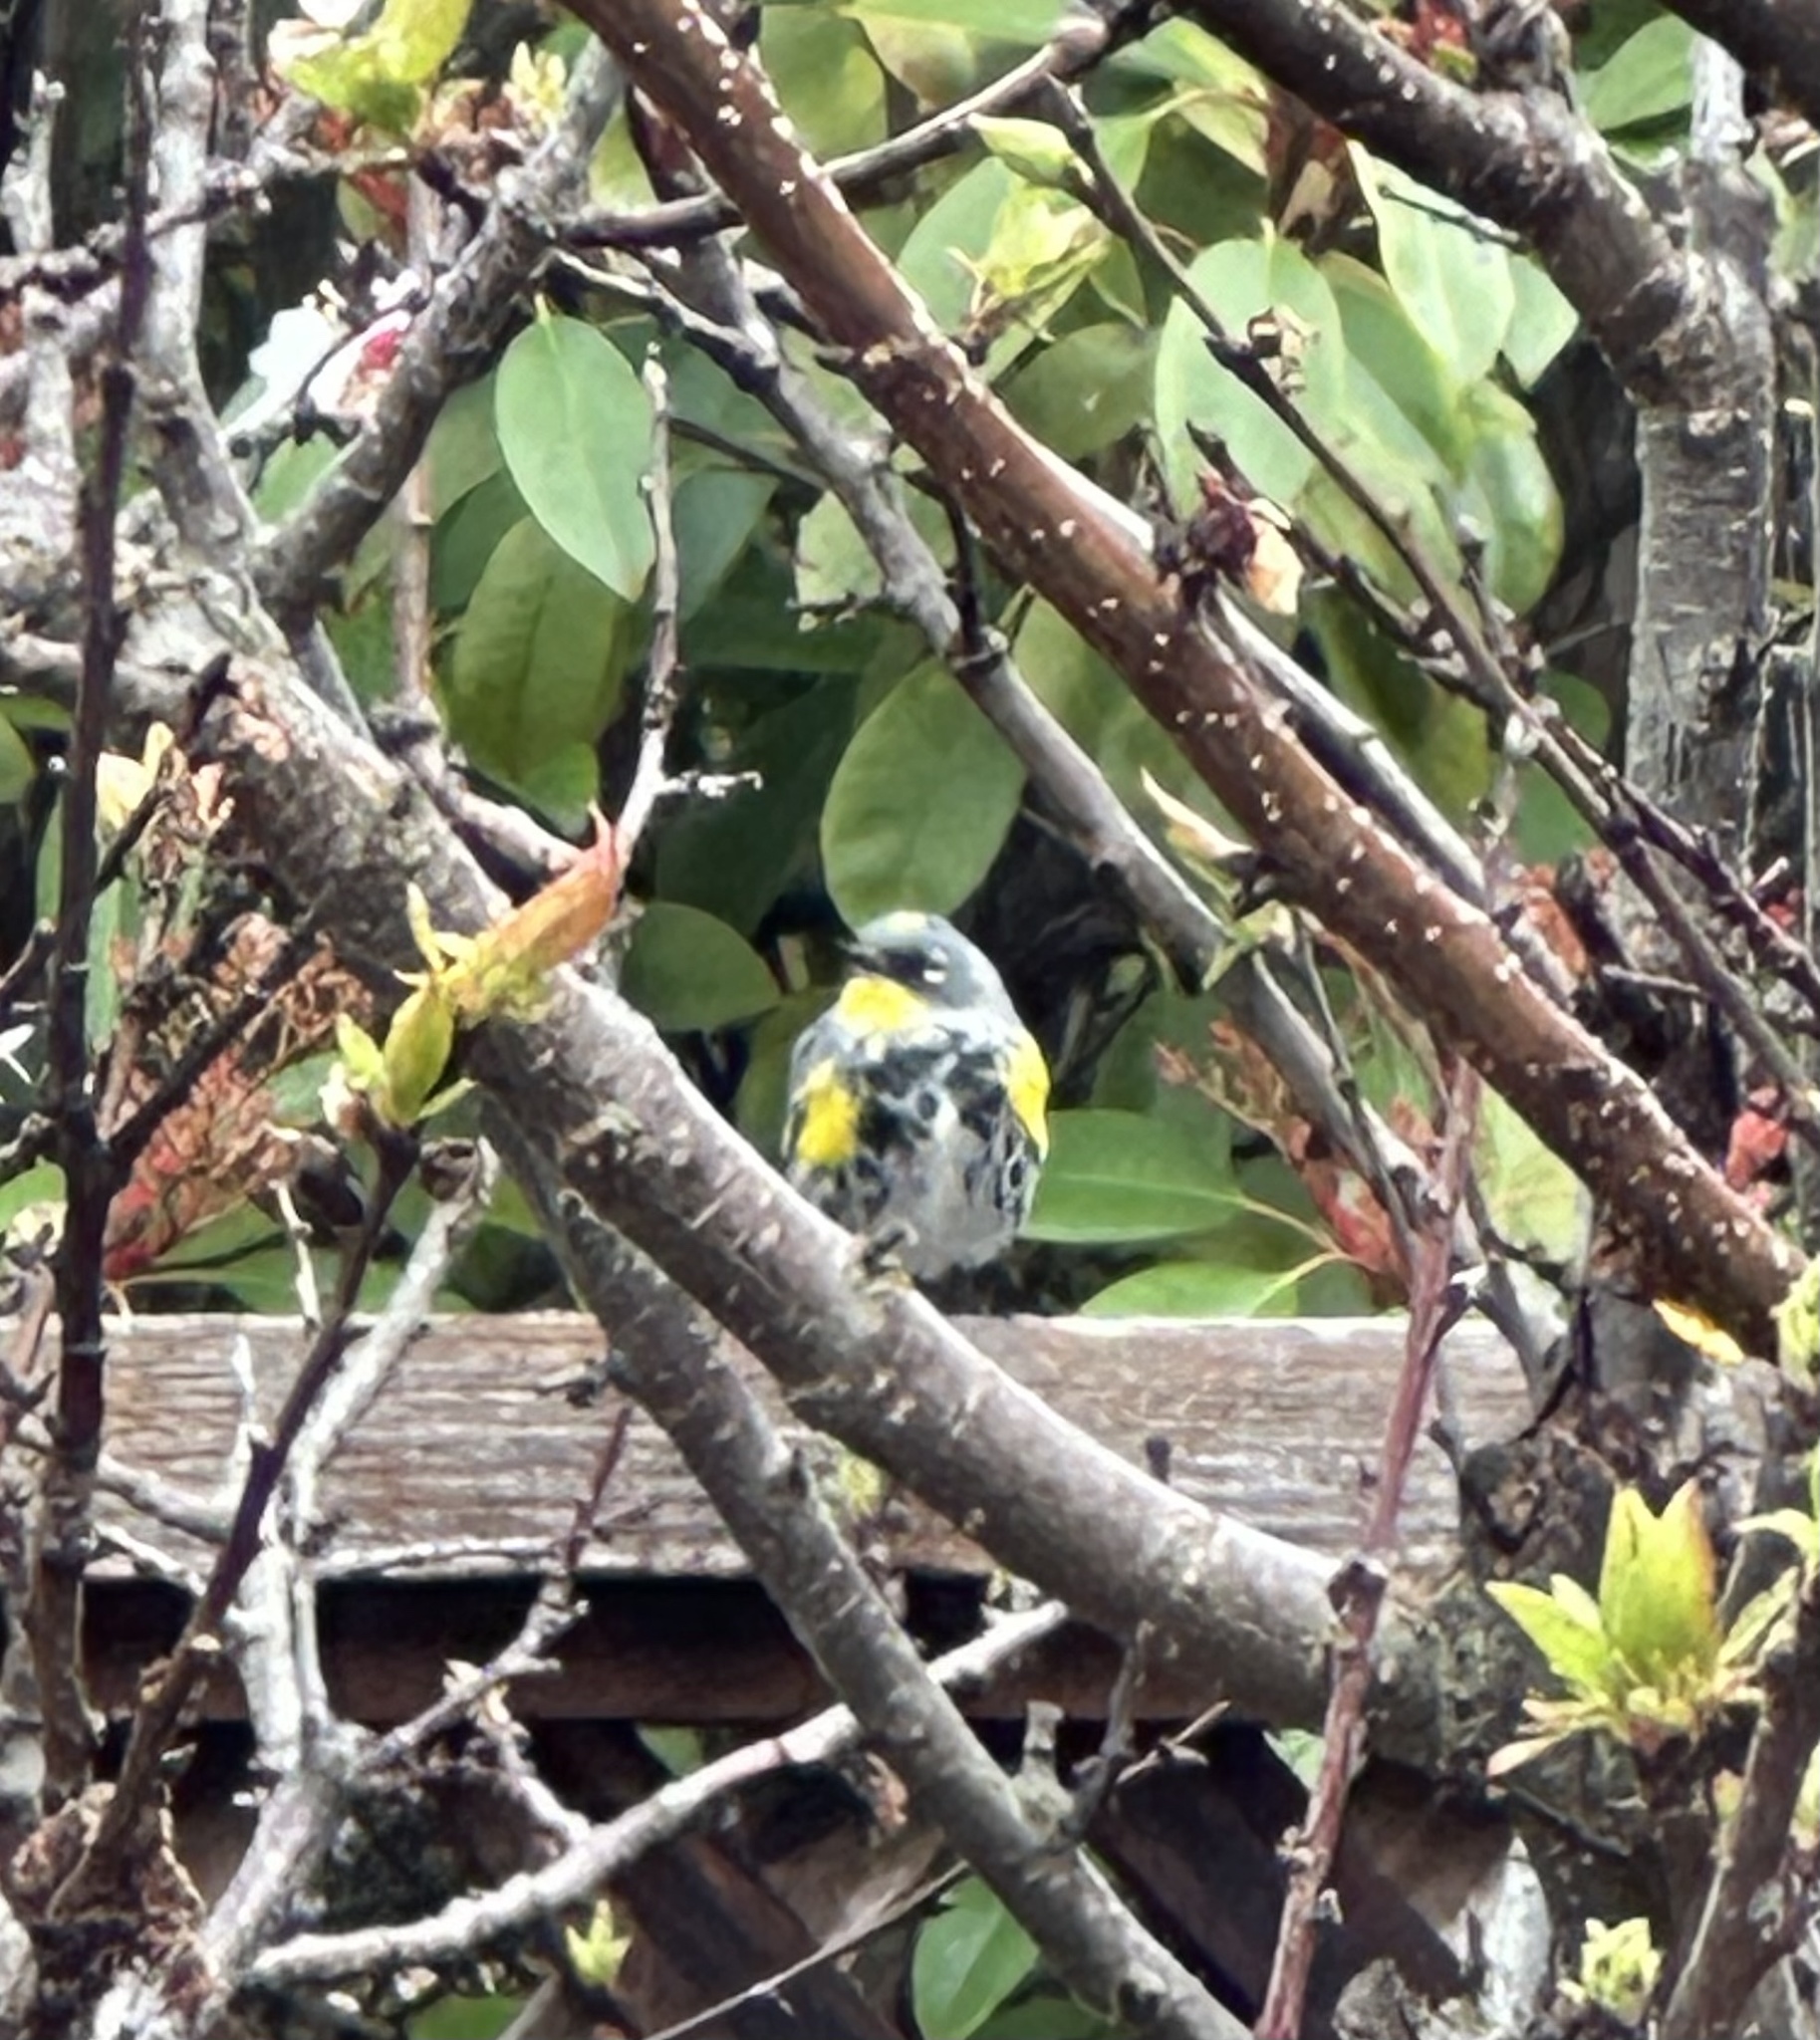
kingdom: Animalia
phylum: Chordata
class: Aves
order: Passeriformes
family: Parulidae
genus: Setophaga
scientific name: Setophaga coronata
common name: Myrtle warbler
